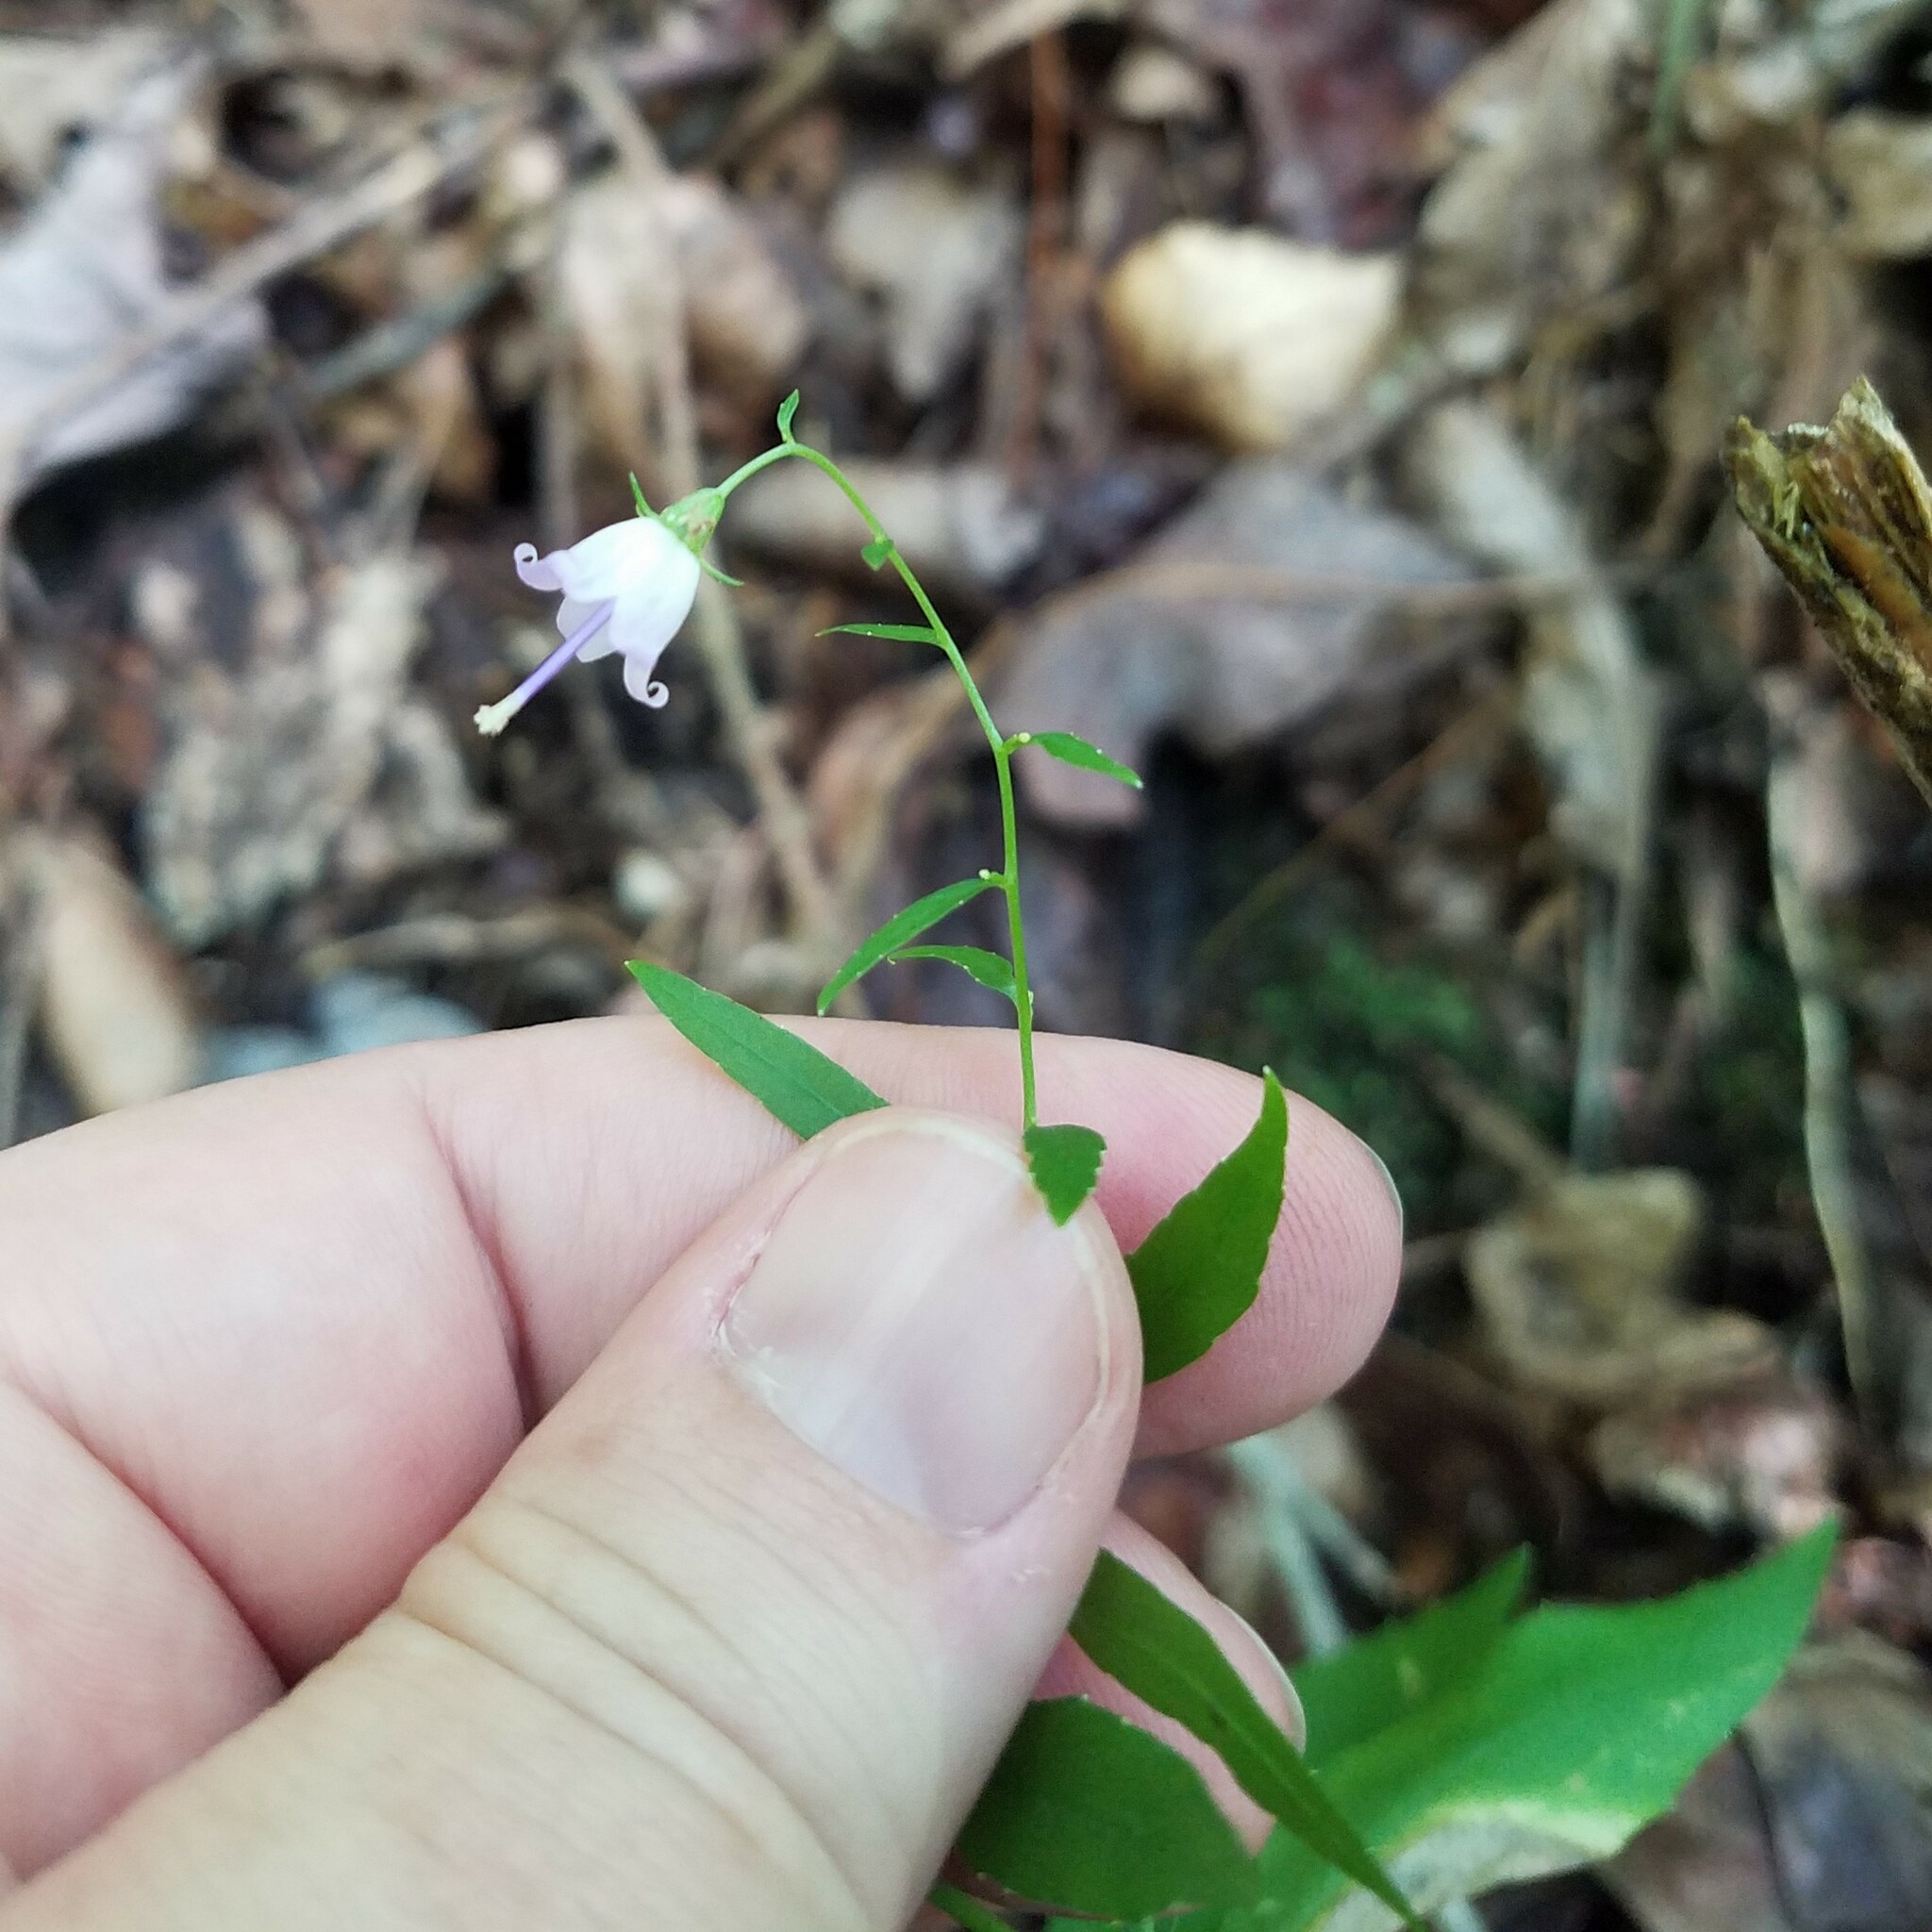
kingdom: Plantae
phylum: Tracheophyta
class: Magnoliopsida
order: Asterales
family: Campanulaceae
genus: Campanula
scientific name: Campanula divaricata
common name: Appalachian bellflower
